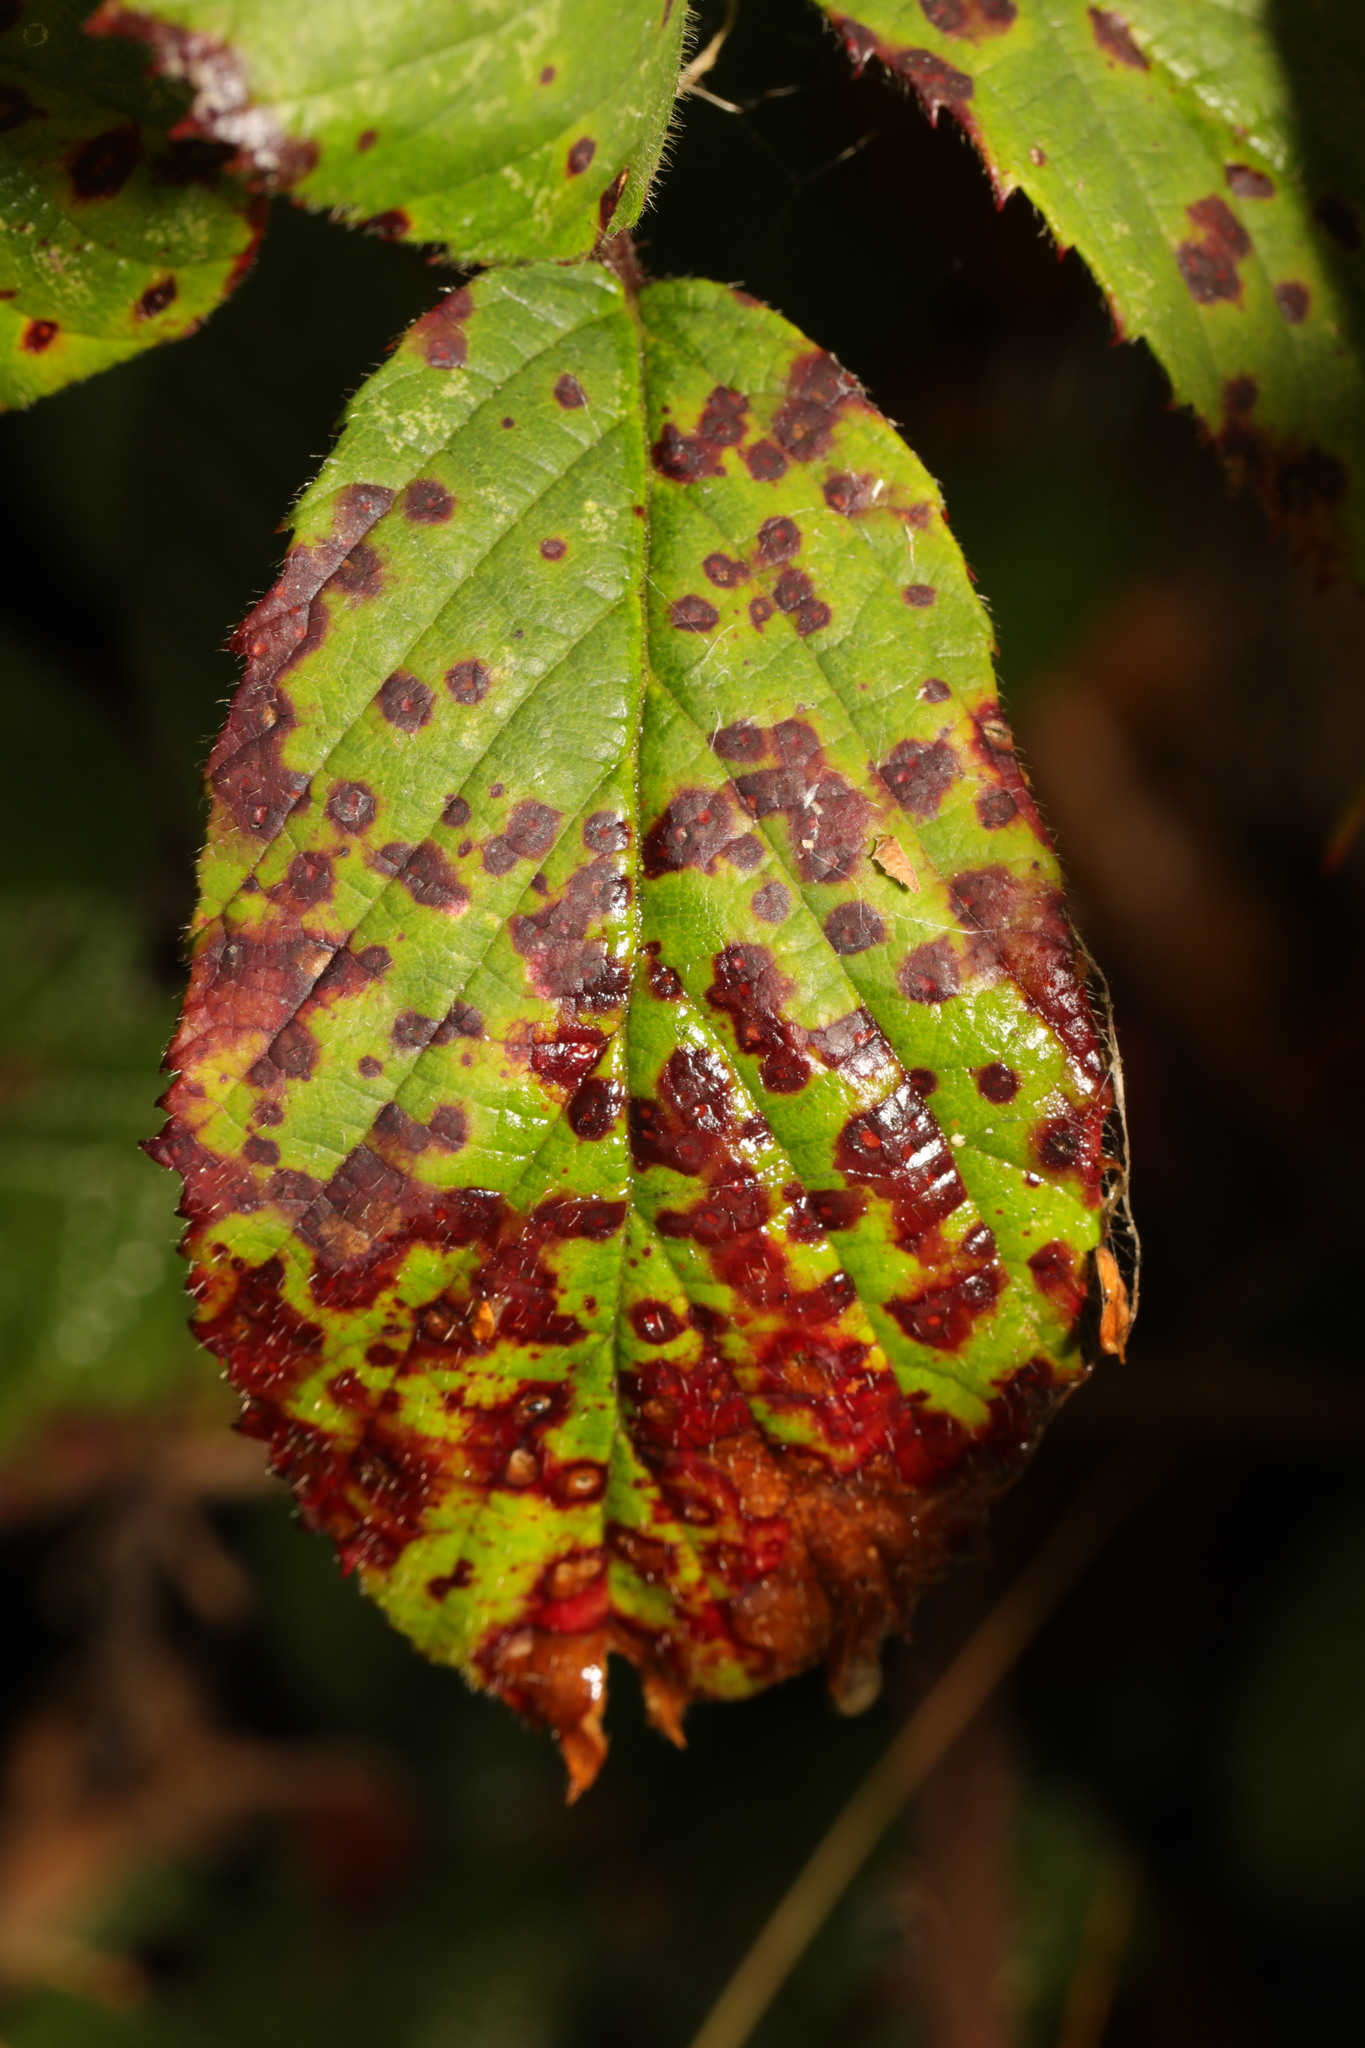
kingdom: Fungi
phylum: Basidiomycota
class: Pucciniomycetes
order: Pucciniales
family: Phragmidiaceae
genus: Phragmidium
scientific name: Phragmidium violaceum
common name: Violet bramble rust
